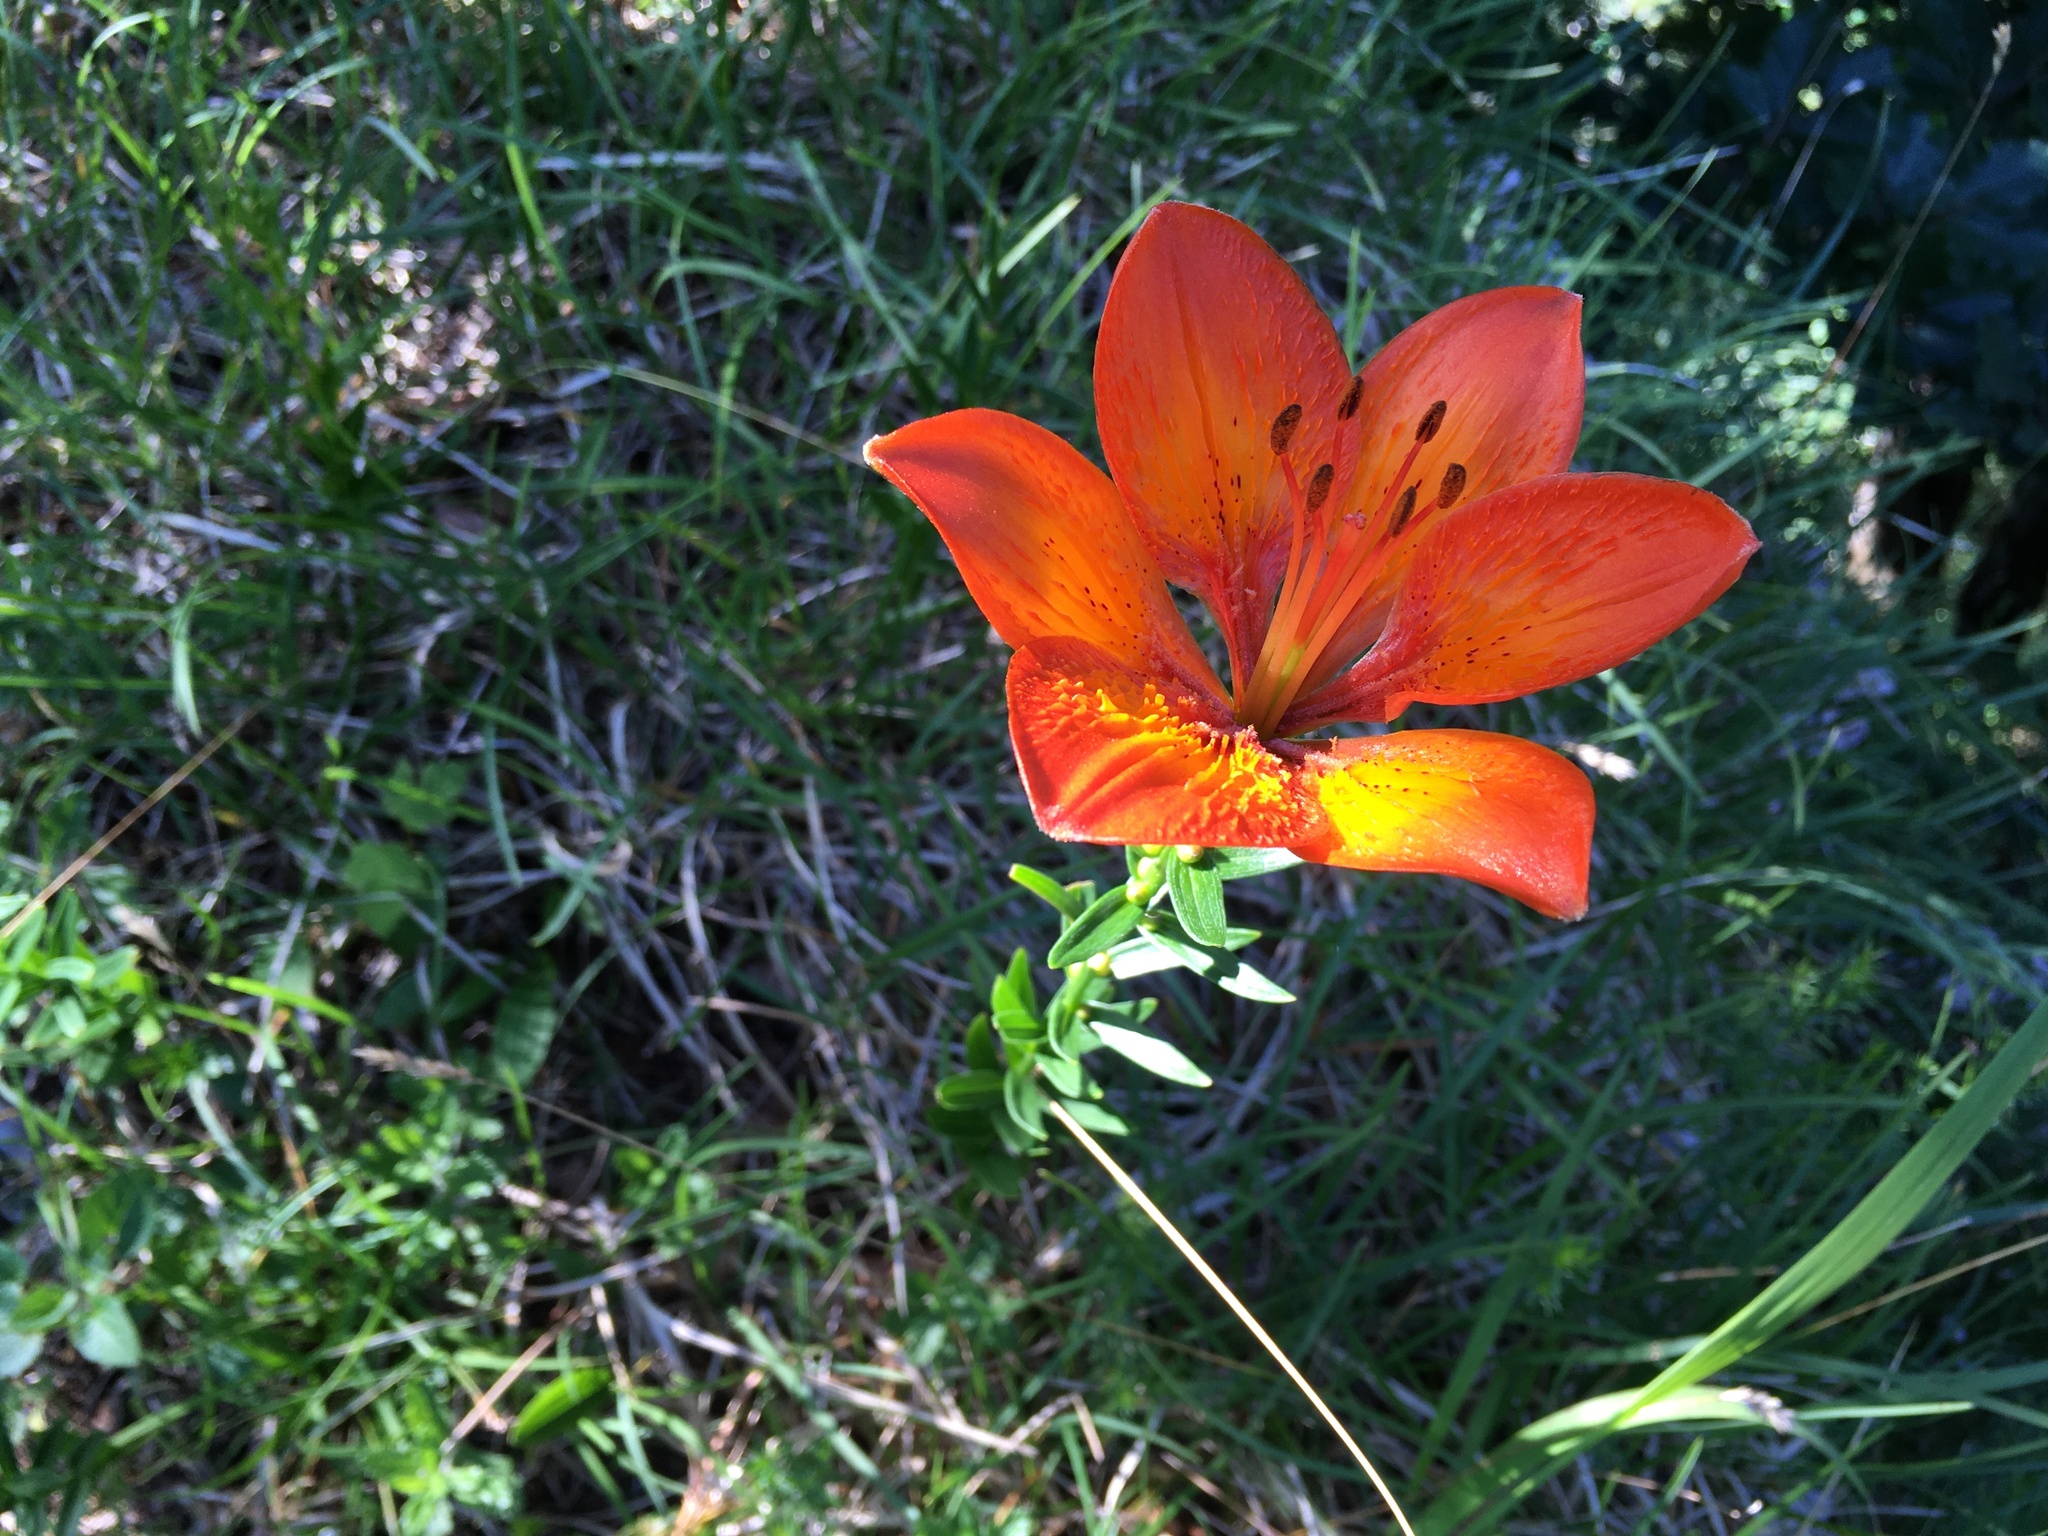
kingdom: Plantae
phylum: Tracheophyta
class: Liliopsida
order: Liliales
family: Liliaceae
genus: Lilium
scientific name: Lilium bulbiferum
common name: Orange lily
